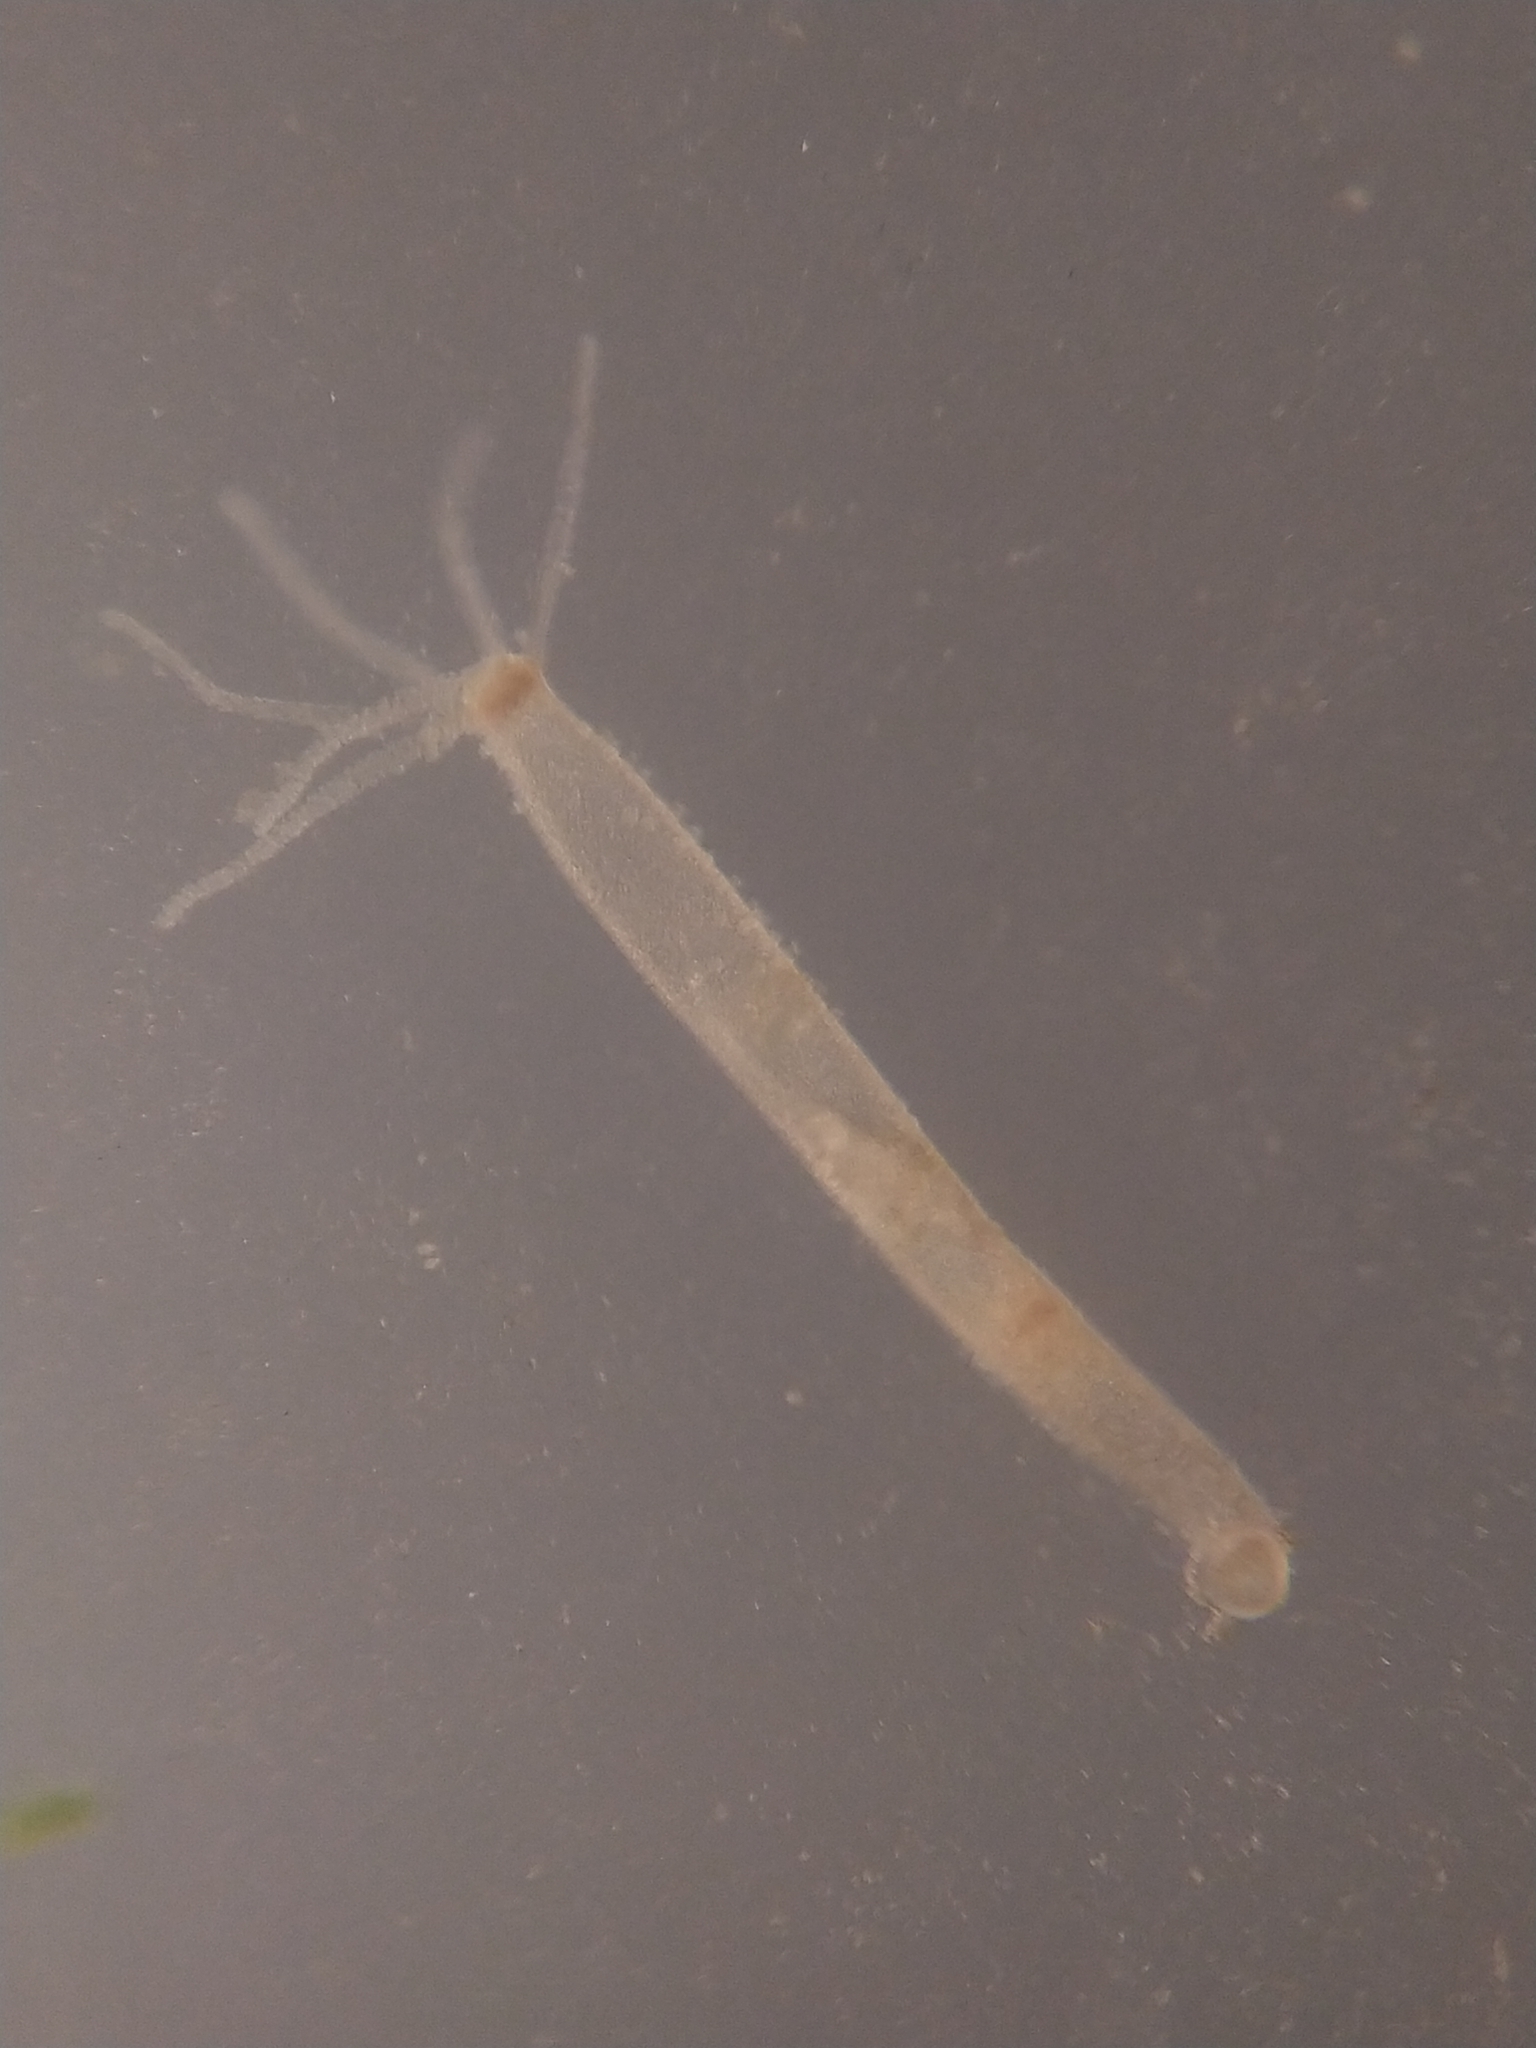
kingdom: Animalia
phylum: Cnidaria
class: Hydrozoa
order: Anthoathecata
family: Hydridae
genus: Hydra
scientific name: Hydra vulgaris
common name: Common hydra
